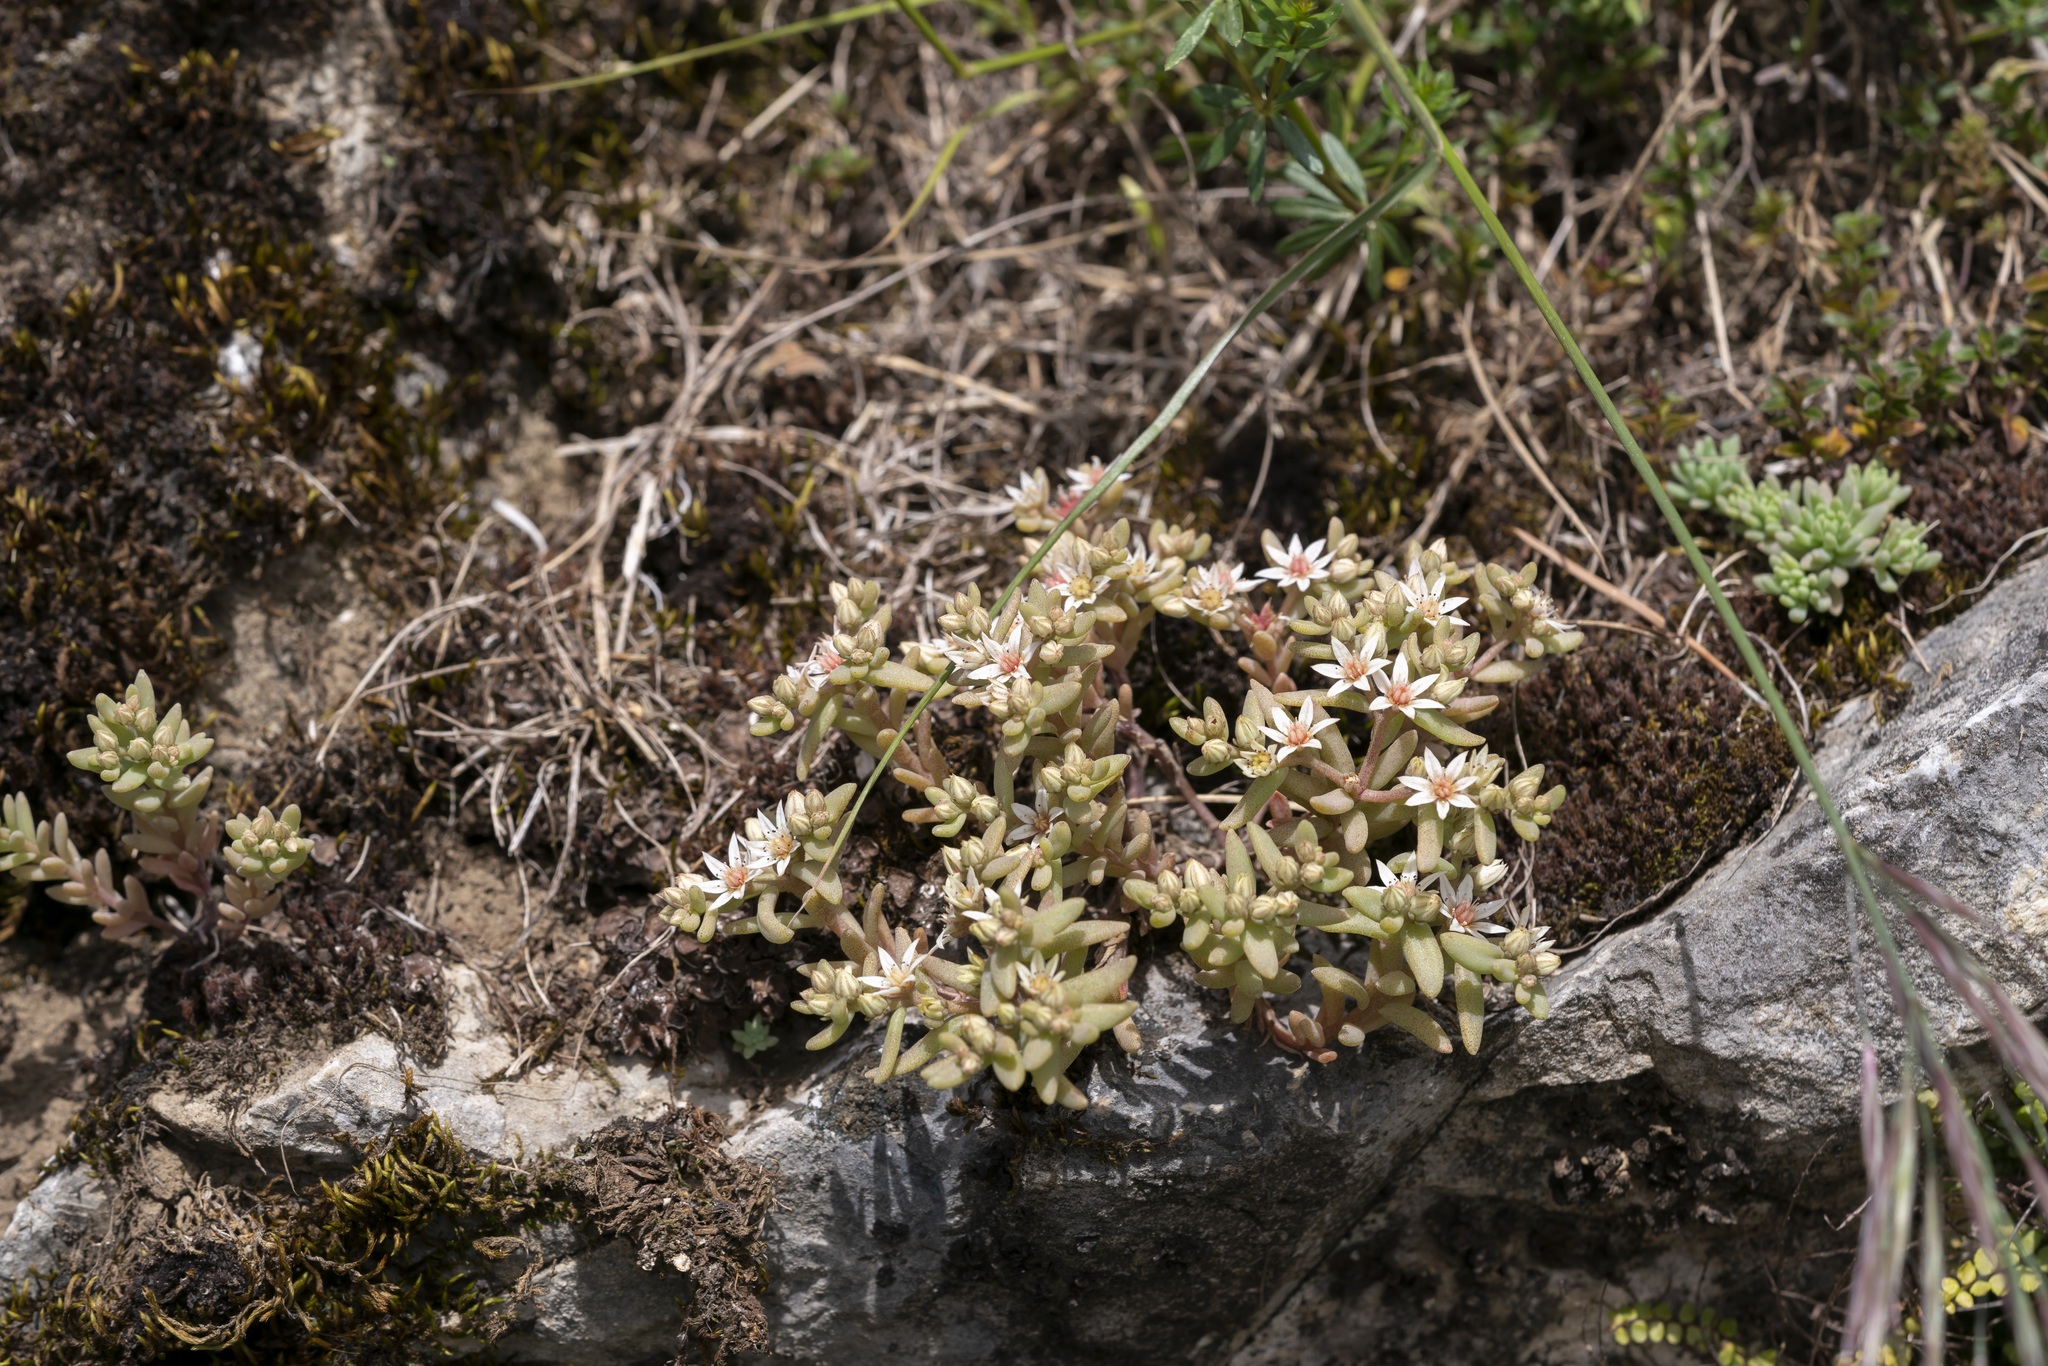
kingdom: Plantae
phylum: Tracheophyta
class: Magnoliopsida
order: Saxifragales
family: Crassulaceae
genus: Sedum
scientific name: Sedum hispanicum
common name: Spanish stonecrop
